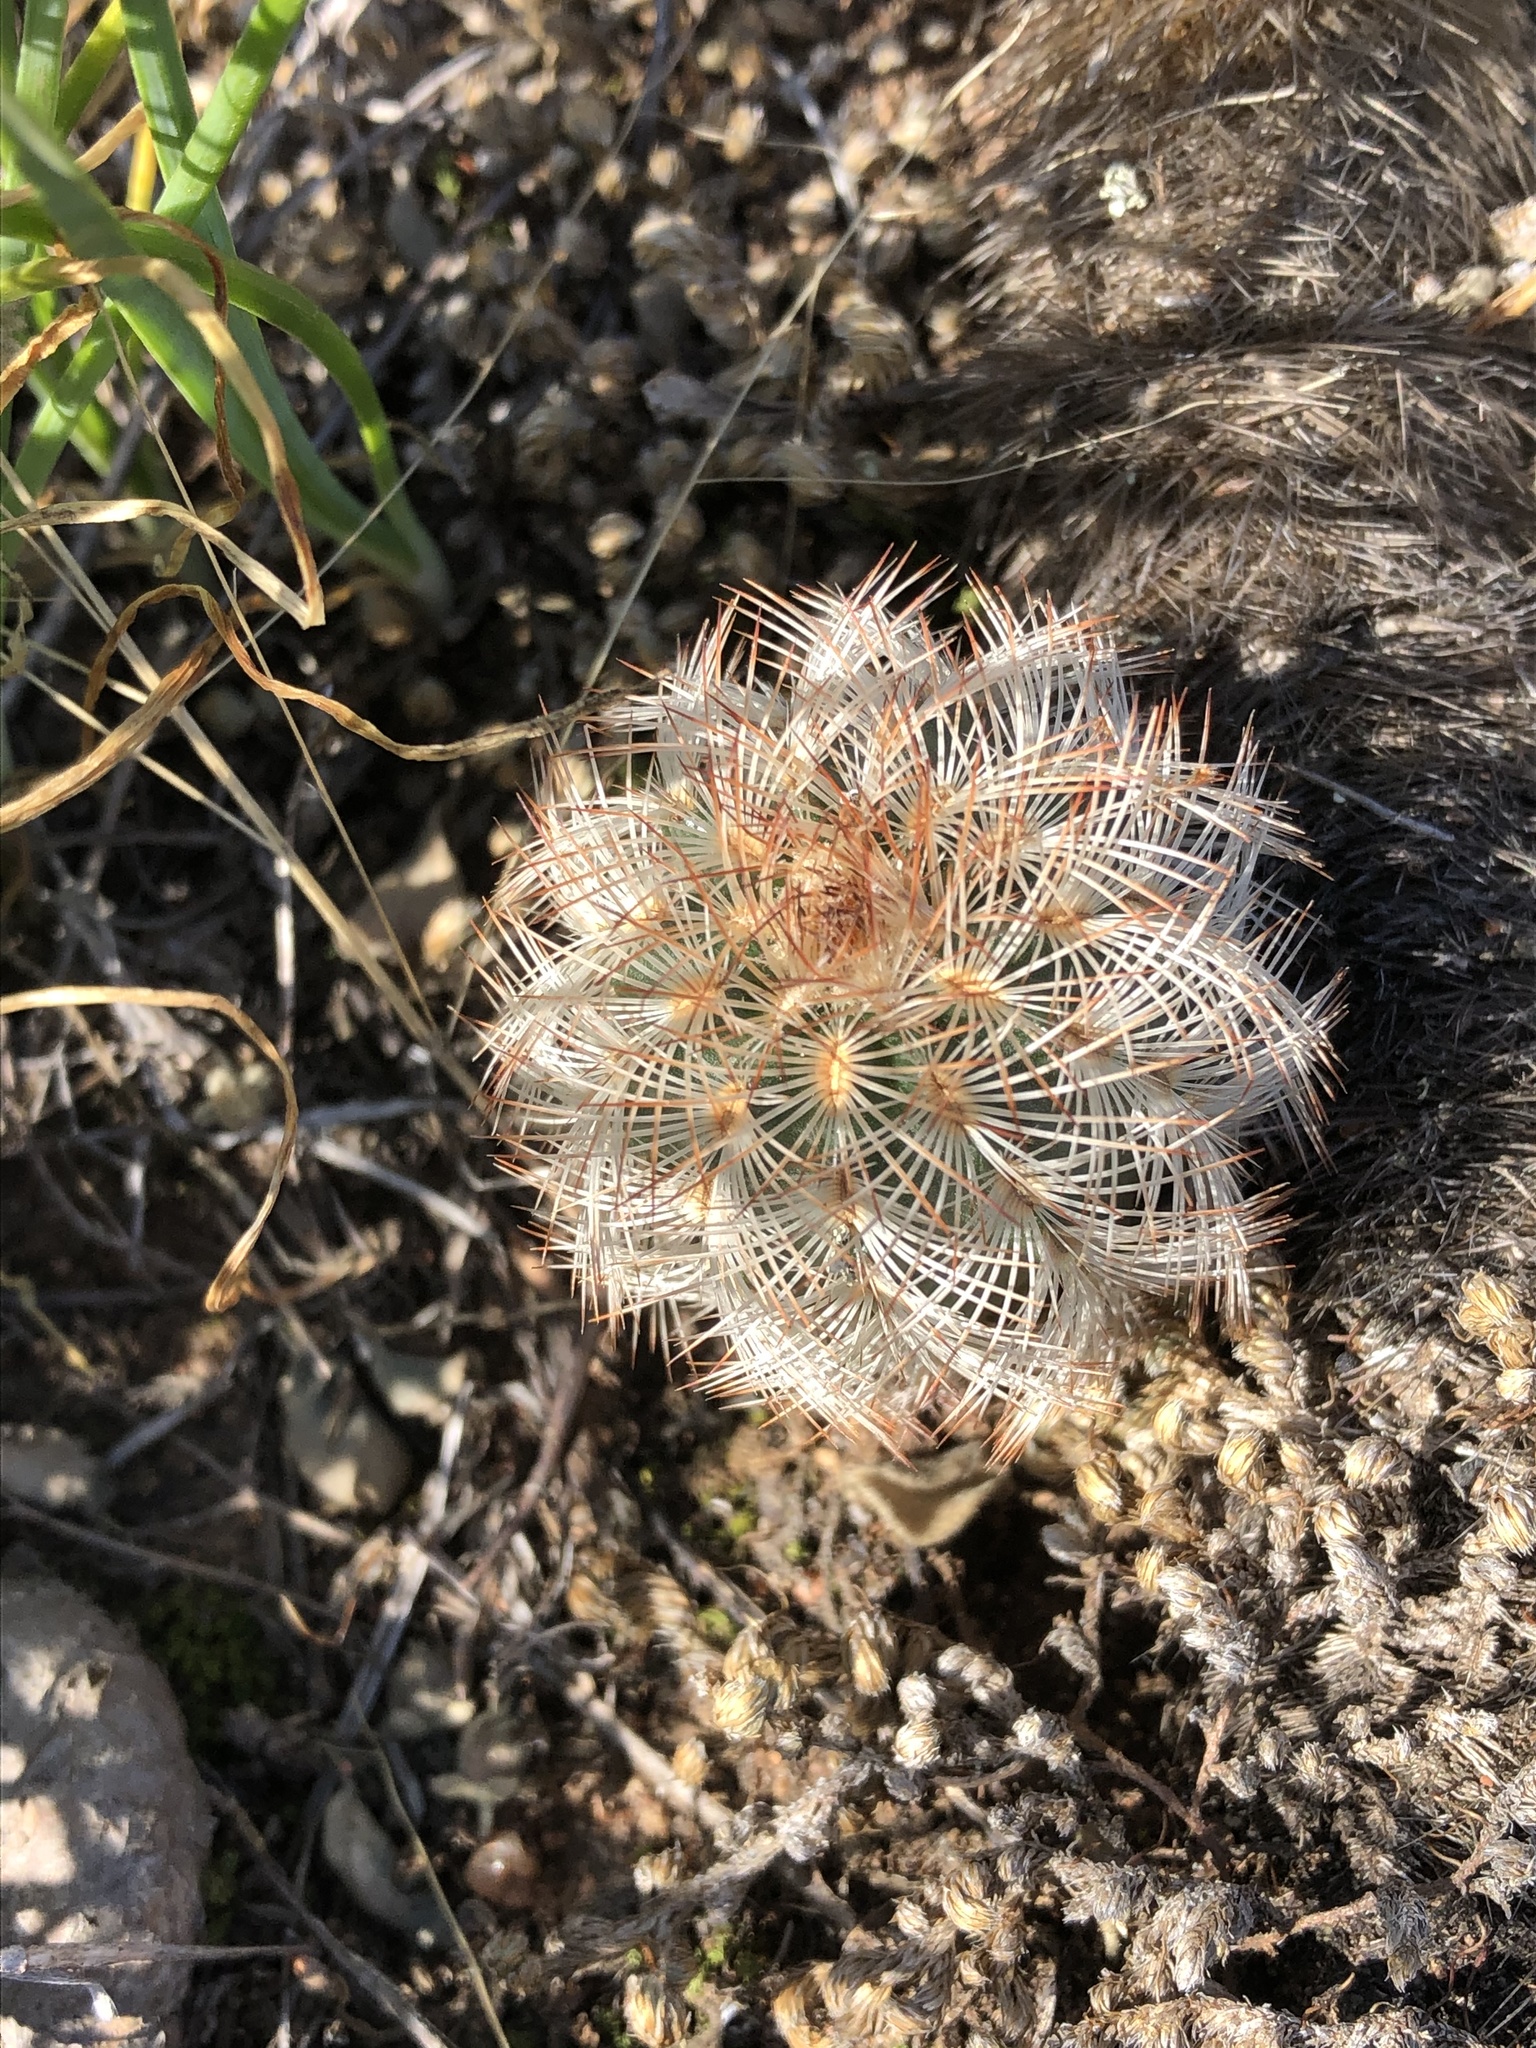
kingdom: Plantae
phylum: Tracheophyta
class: Magnoliopsida
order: Caryophyllales
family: Cactaceae
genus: Echinocereus
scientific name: Echinocereus reichenbachii
